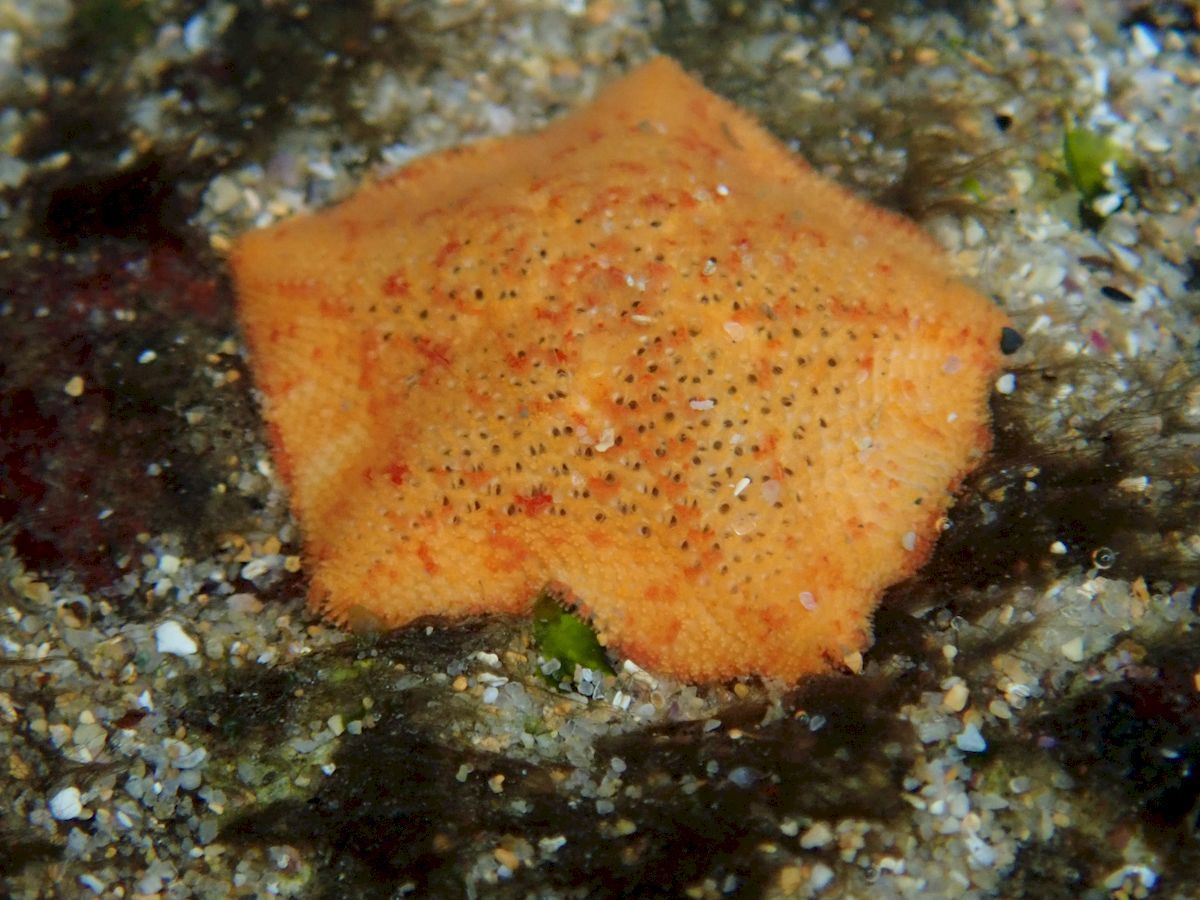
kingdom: Animalia
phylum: Echinodermata
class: Asteroidea
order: Valvatida
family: Asterinidae
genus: Parvulastra
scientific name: Parvulastra exigua
